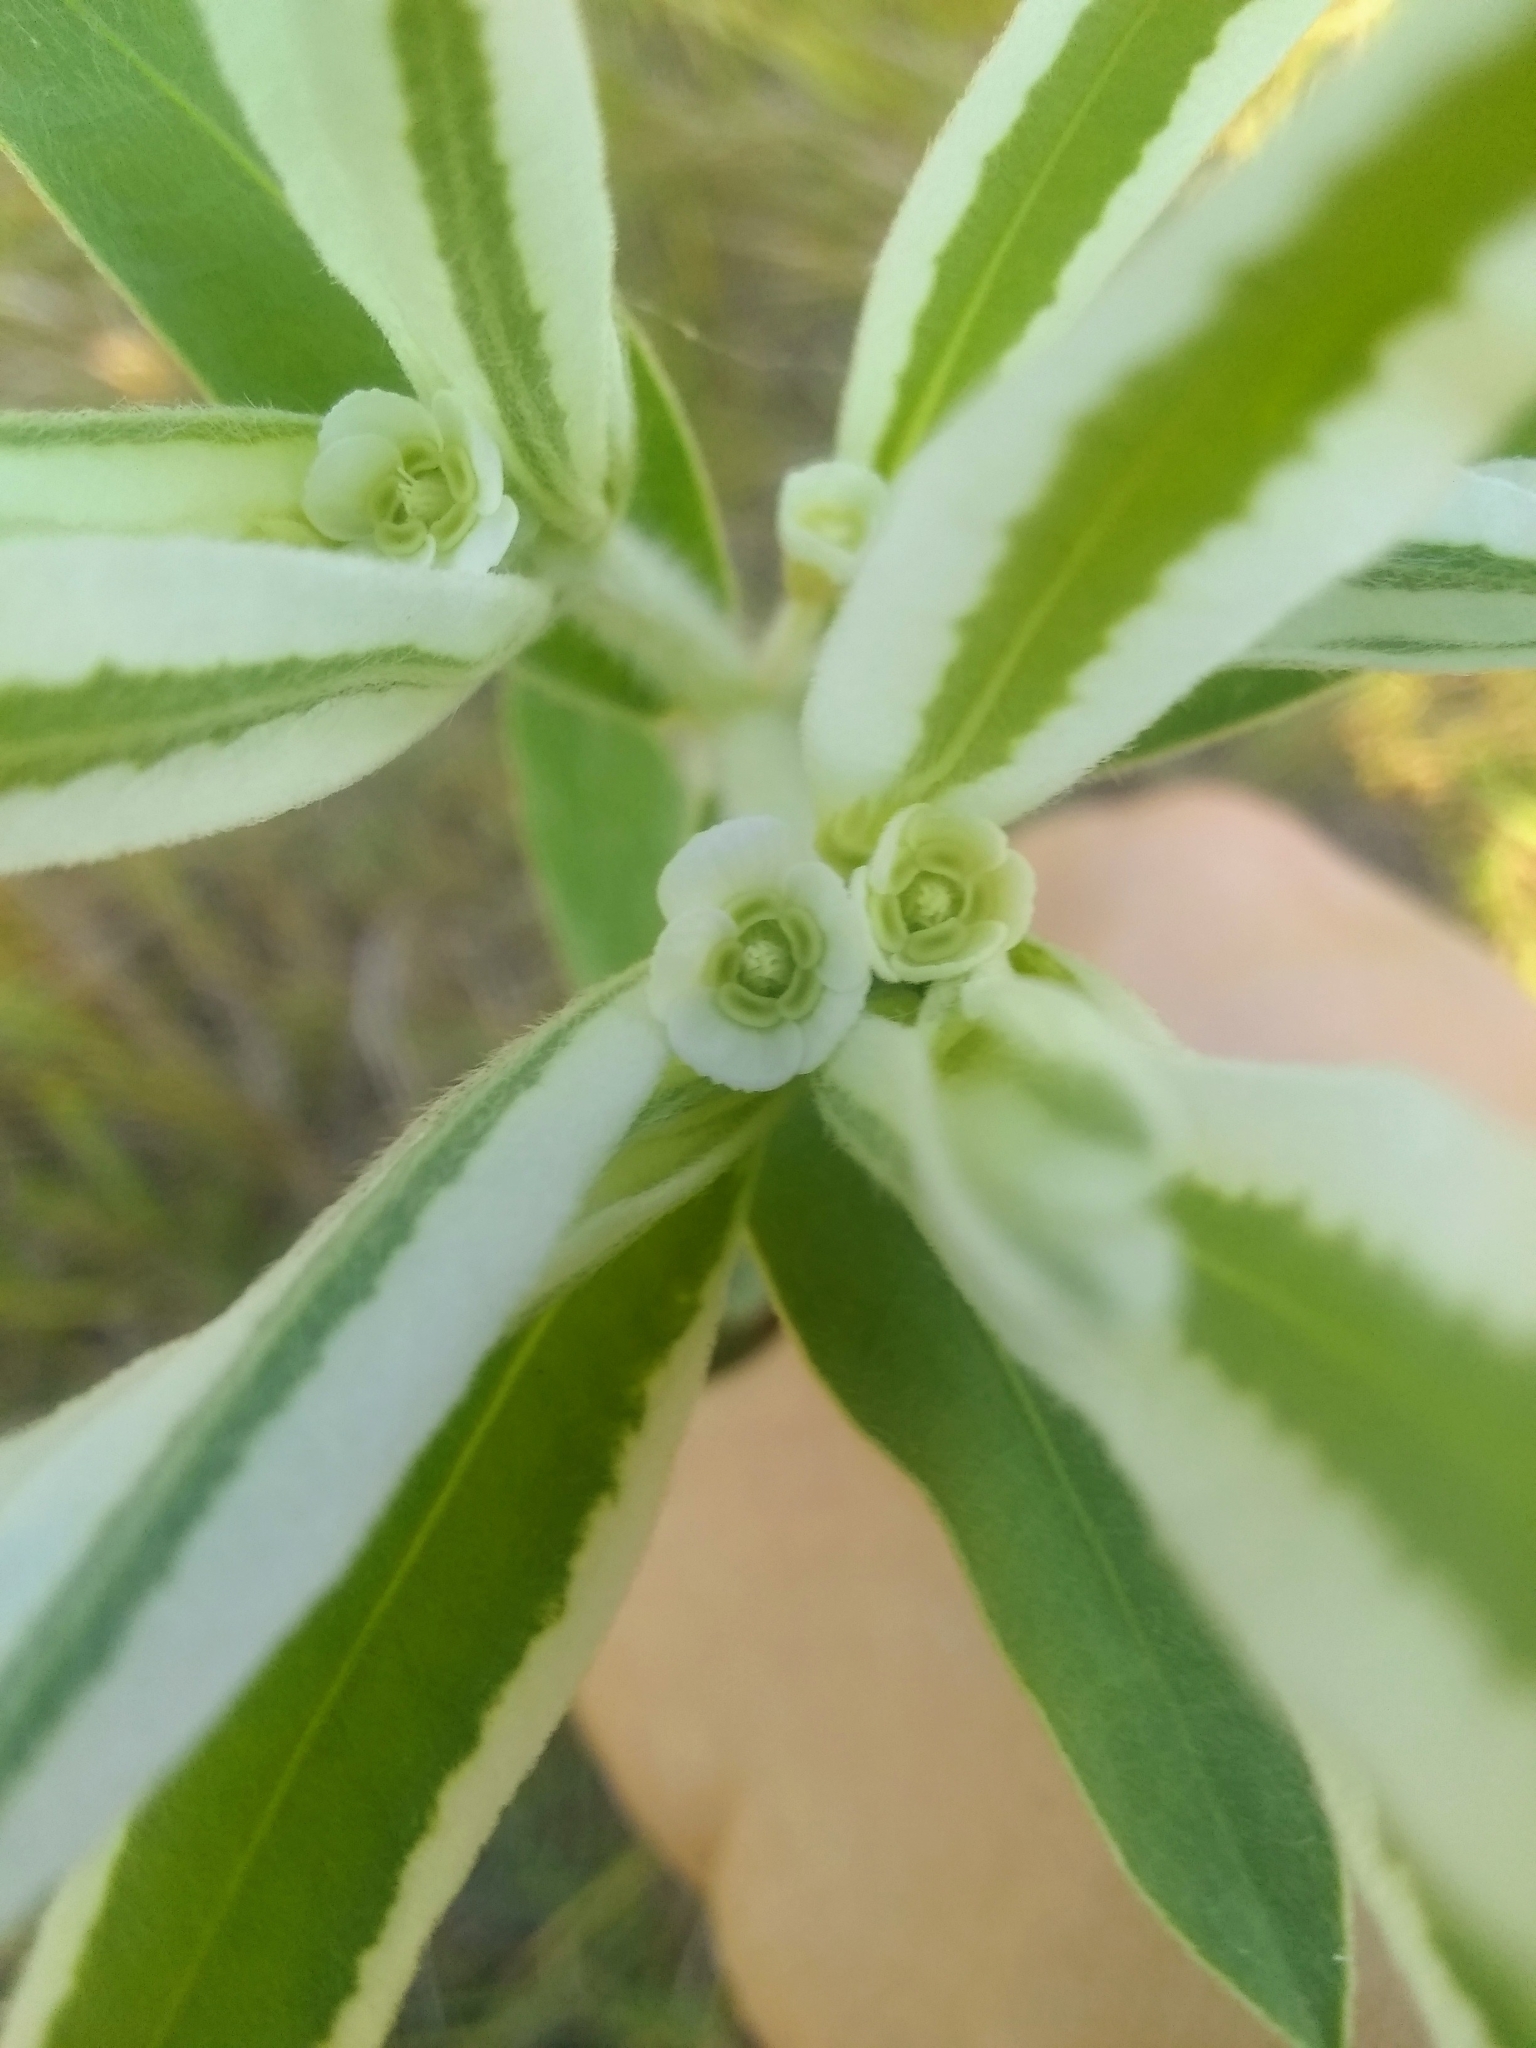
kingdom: Plantae
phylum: Tracheophyta
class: Magnoliopsida
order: Malpighiales
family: Euphorbiaceae
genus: Euphorbia
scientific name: Euphorbia bicolor
